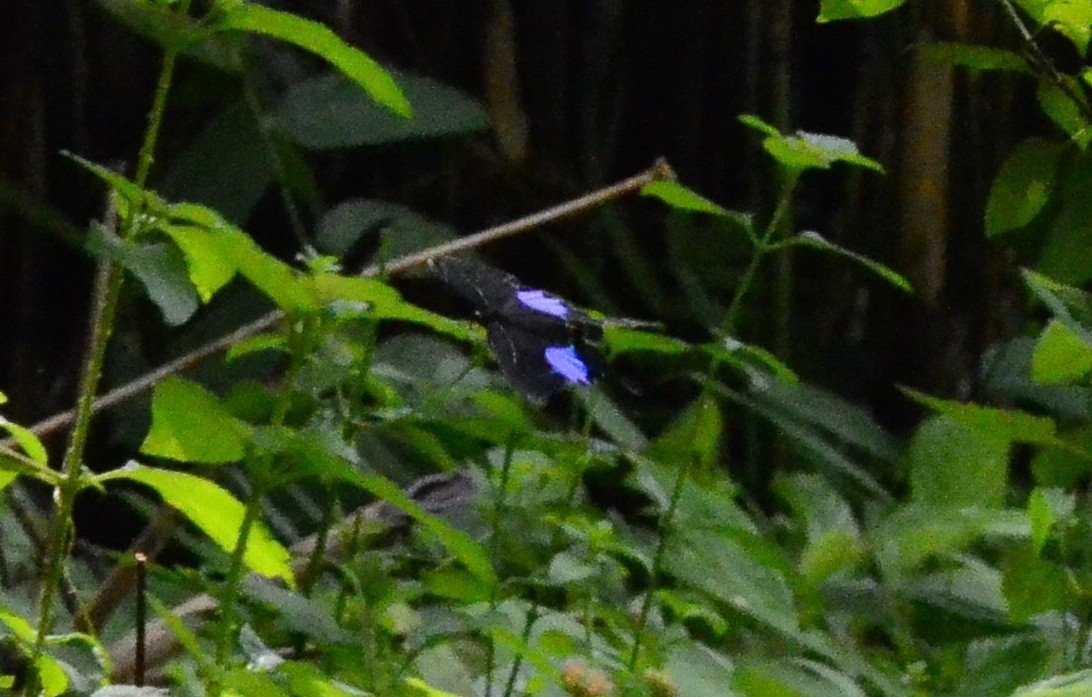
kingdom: Animalia
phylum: Arthropoda
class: Insecta
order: Lepidoptera
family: Papilionidae
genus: Papilio
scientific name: Papilio paris
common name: Paris peacock
